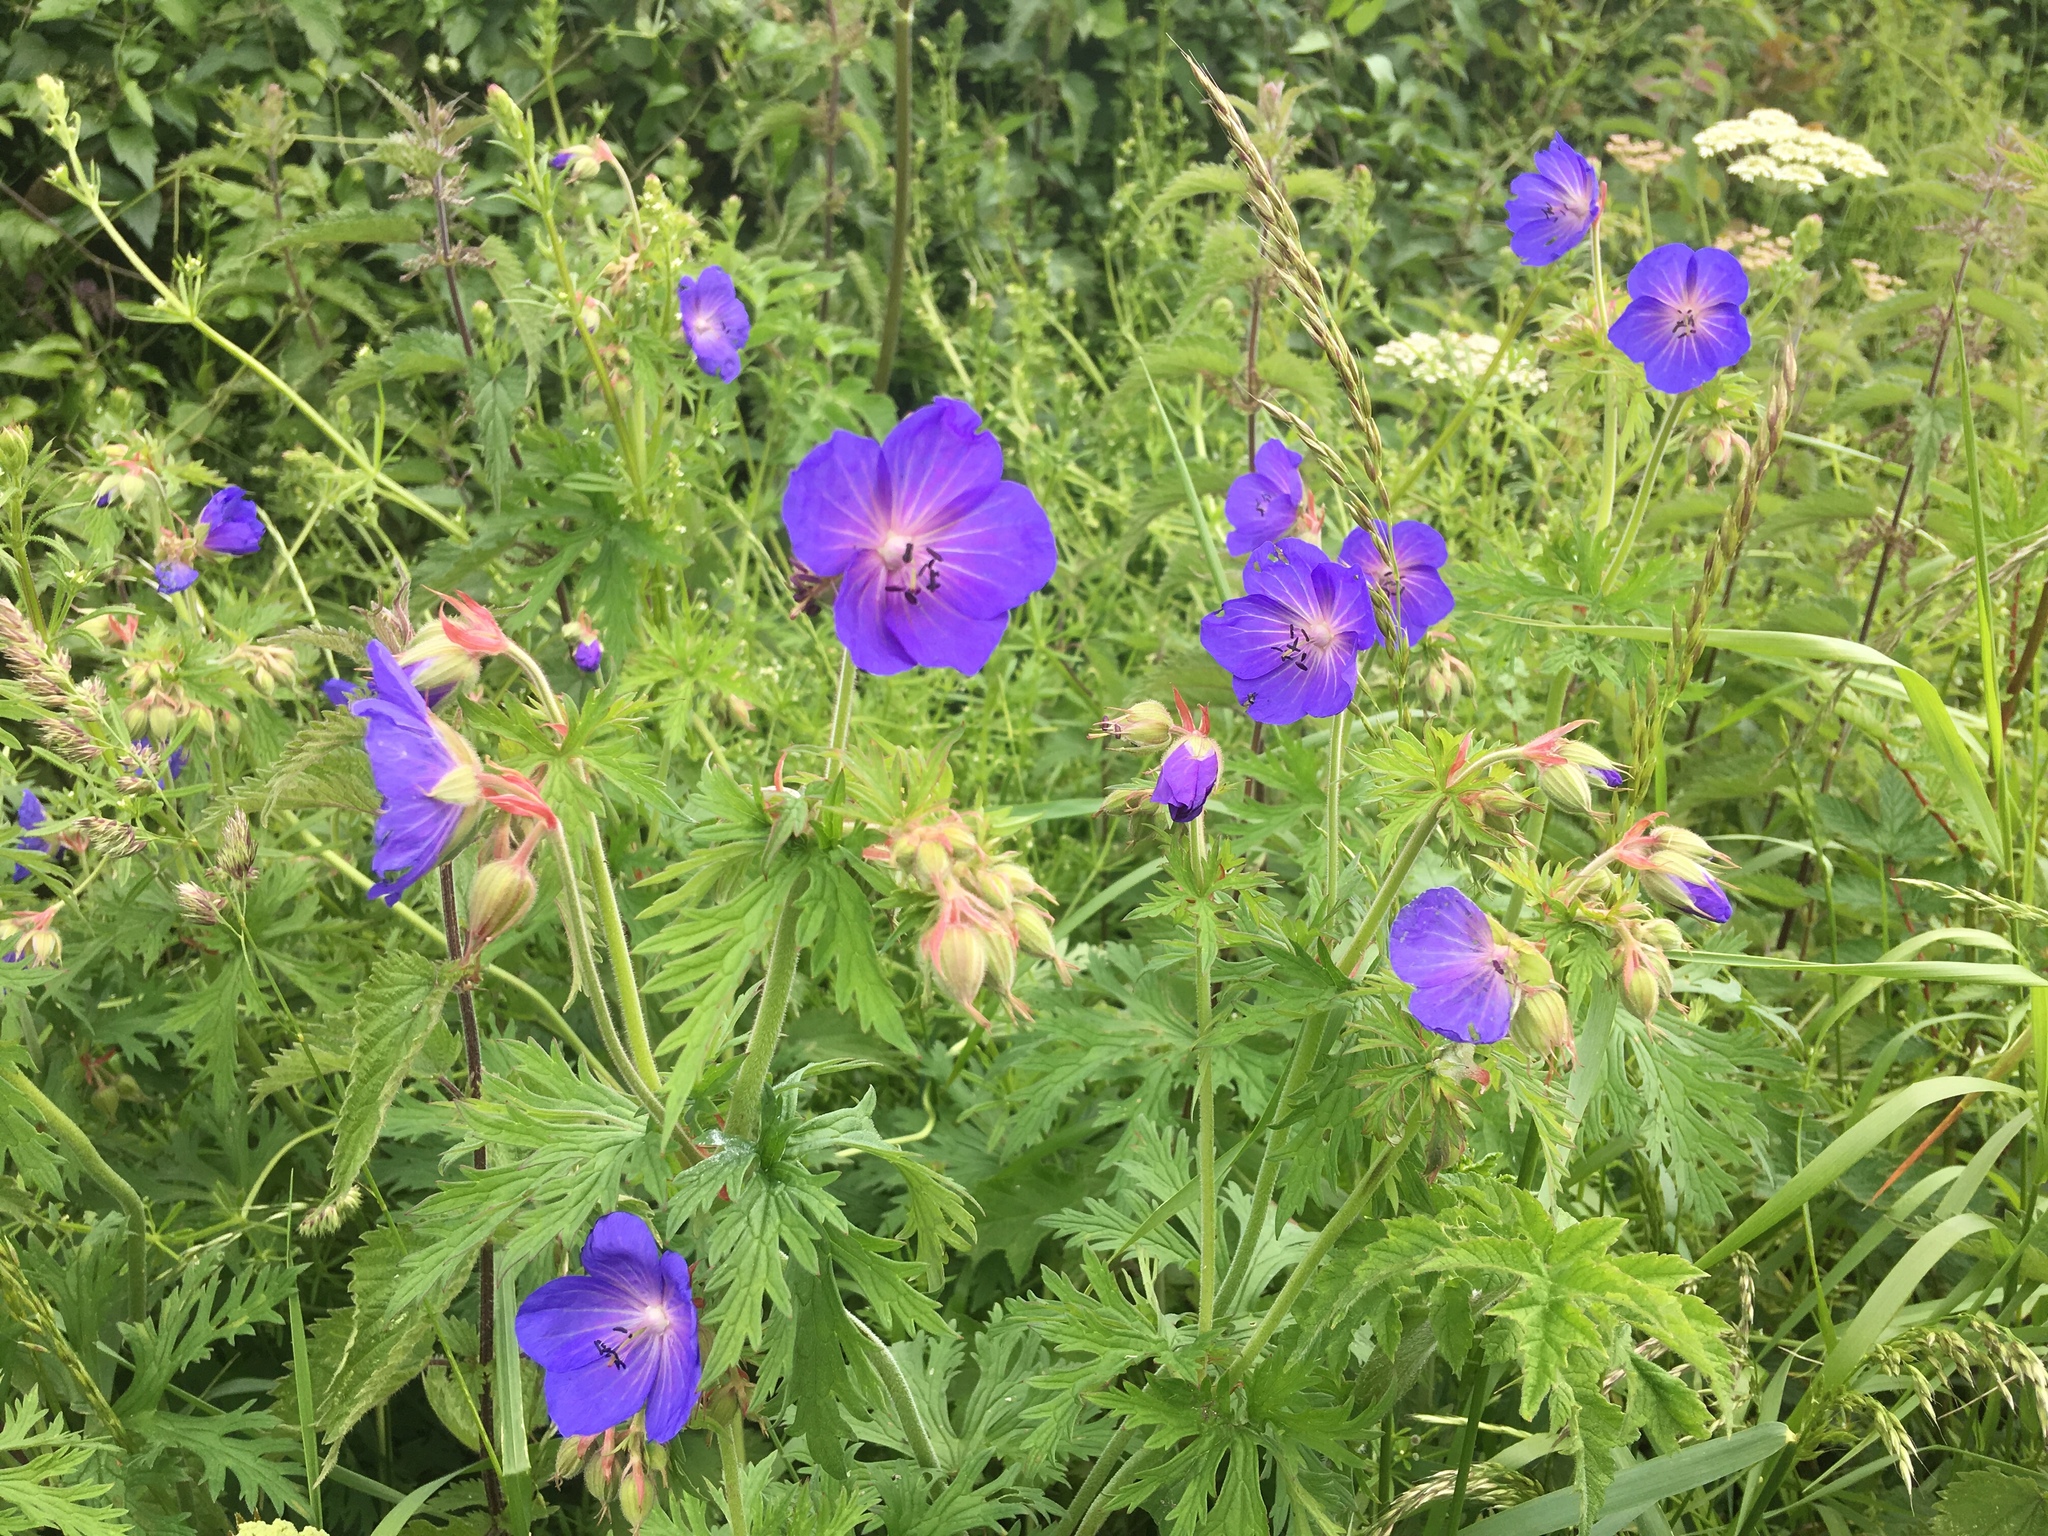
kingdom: Plantae
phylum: Tracheophyta
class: Magnoliopsida
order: Geraniales
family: Geraniaceae
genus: Geranium
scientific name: Geranium pratense
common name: Meadow crane's-bill
